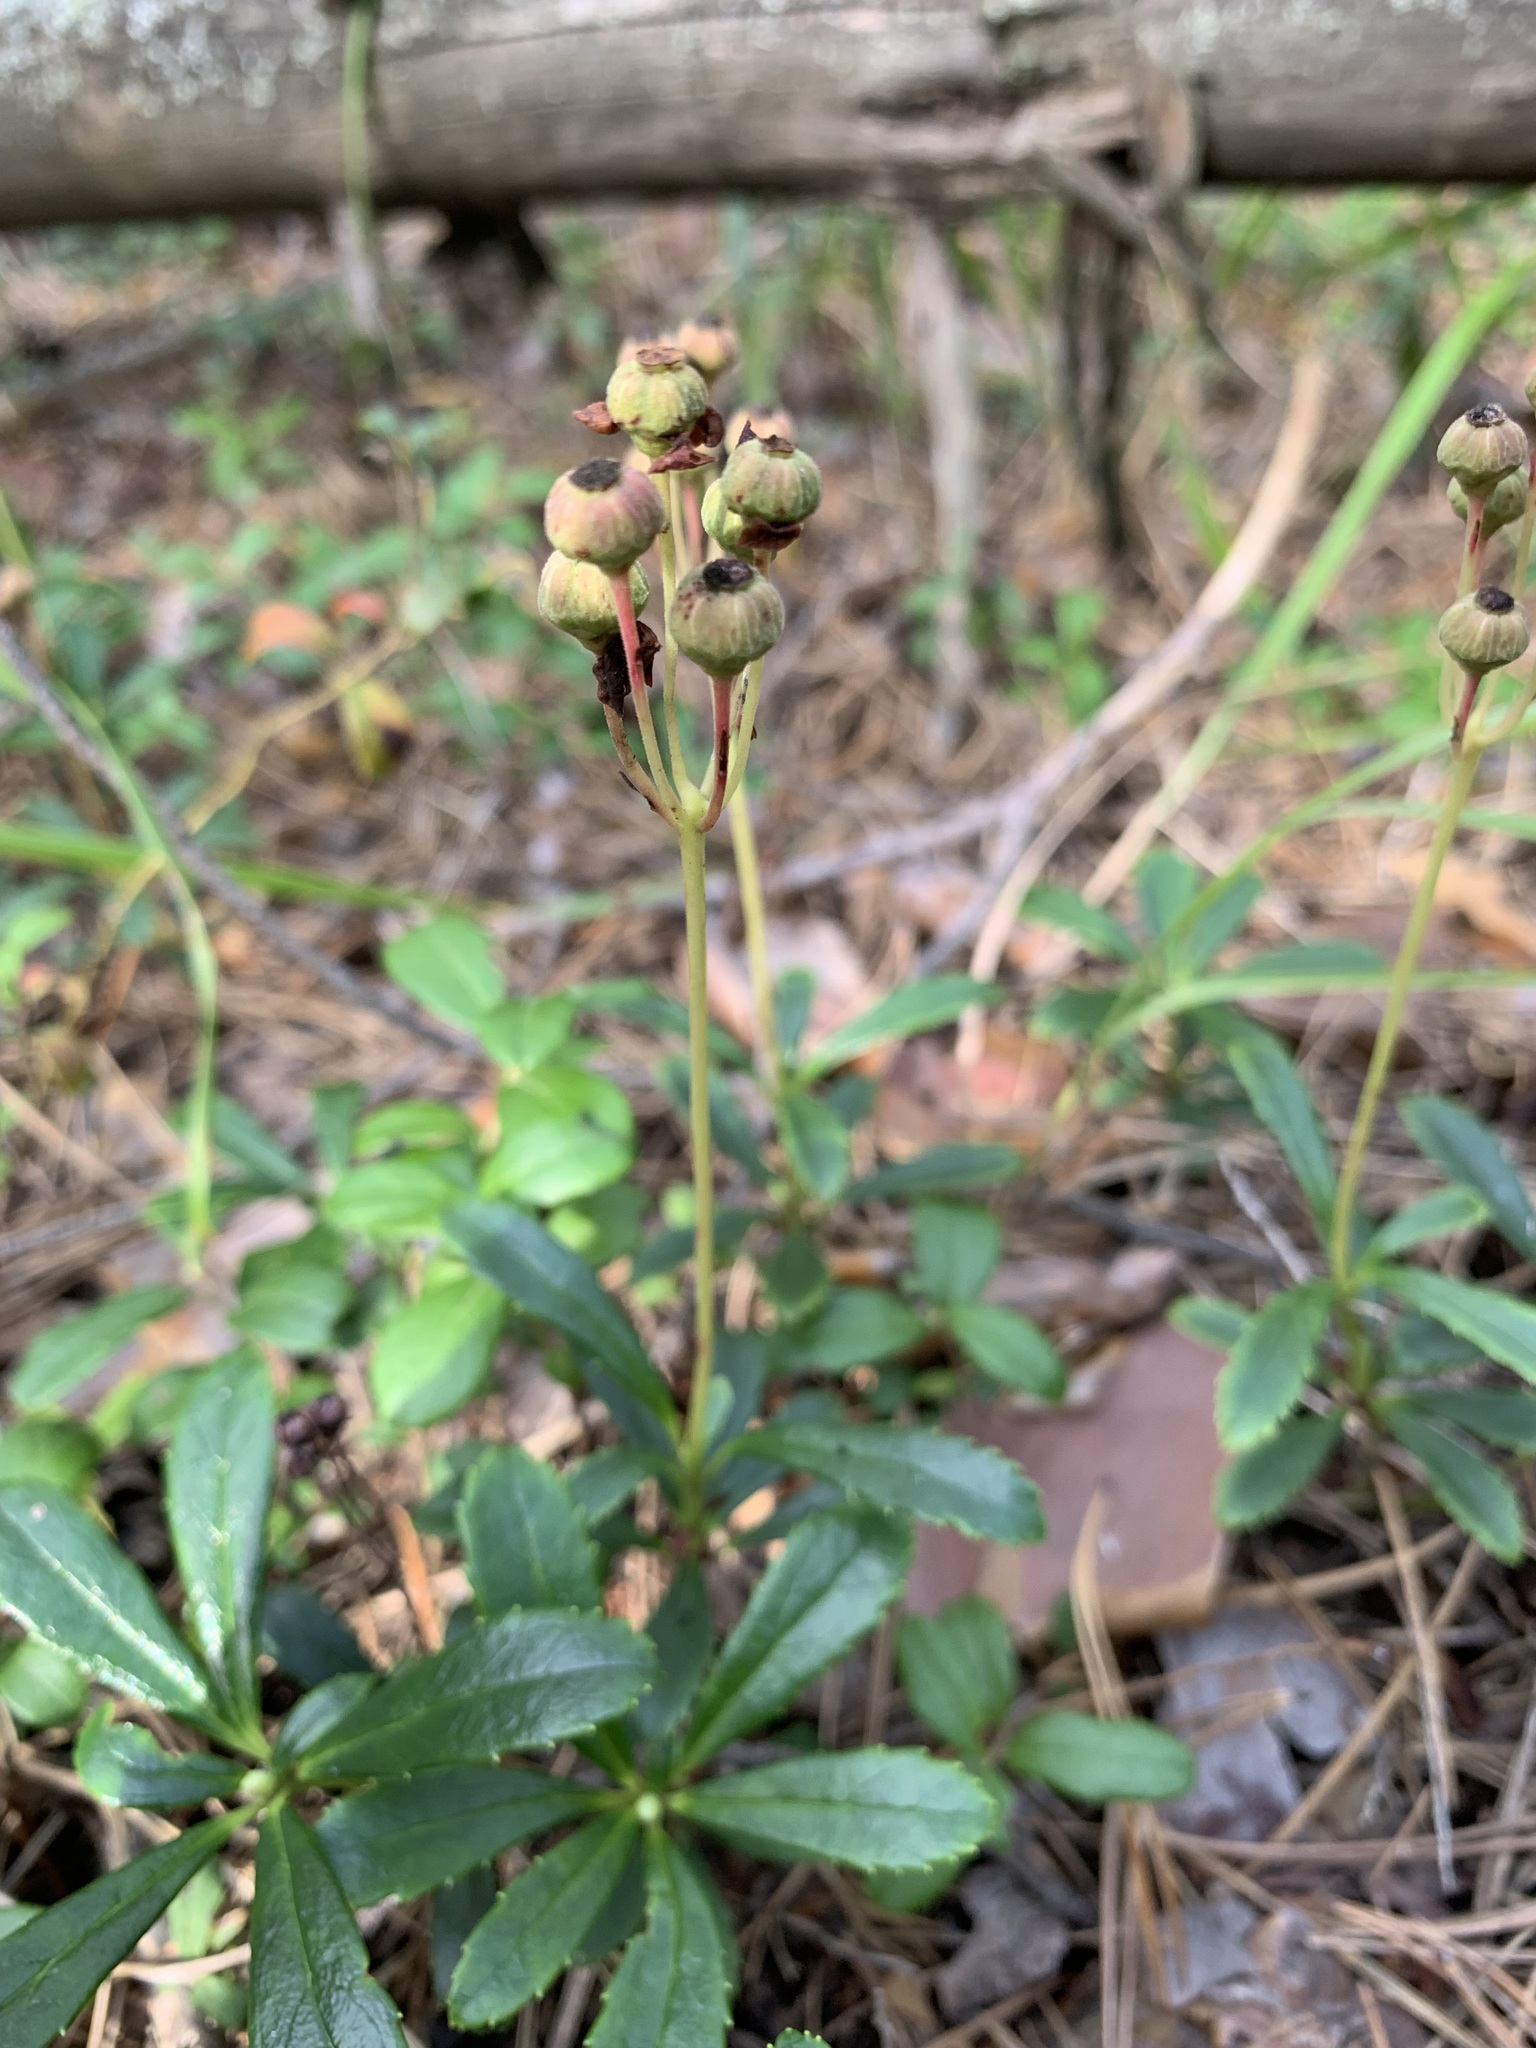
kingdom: Plantae
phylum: Tracheophyta
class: Magnoliopsida
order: Ericales
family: Ericaceae
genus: Chimaphila
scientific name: Chimaphila umbellata
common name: Pipsissewa
